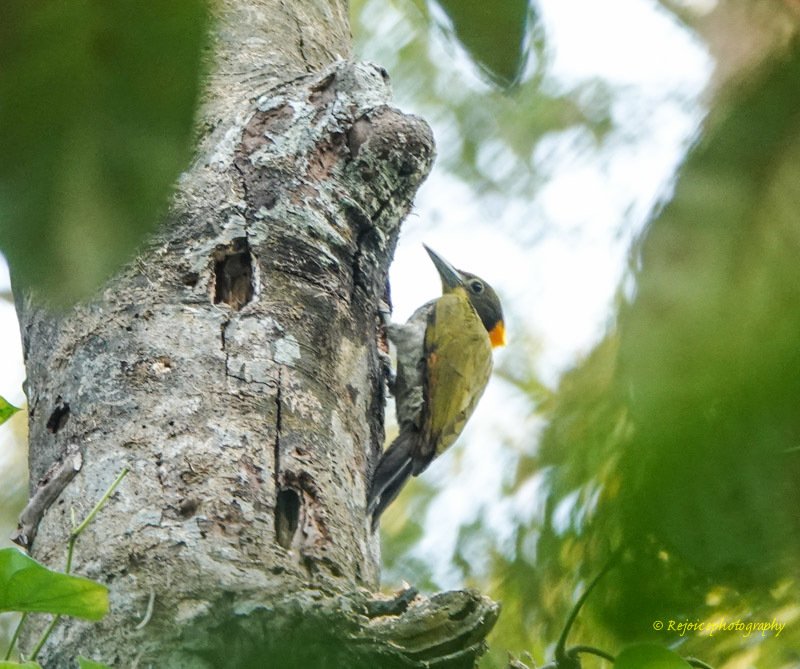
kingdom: Animalia
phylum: Chordata
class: Aves
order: Piciformes
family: Picidae
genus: Chrysophlegma
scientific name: Chrysophlegma flavinucha
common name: Greater yellownape
